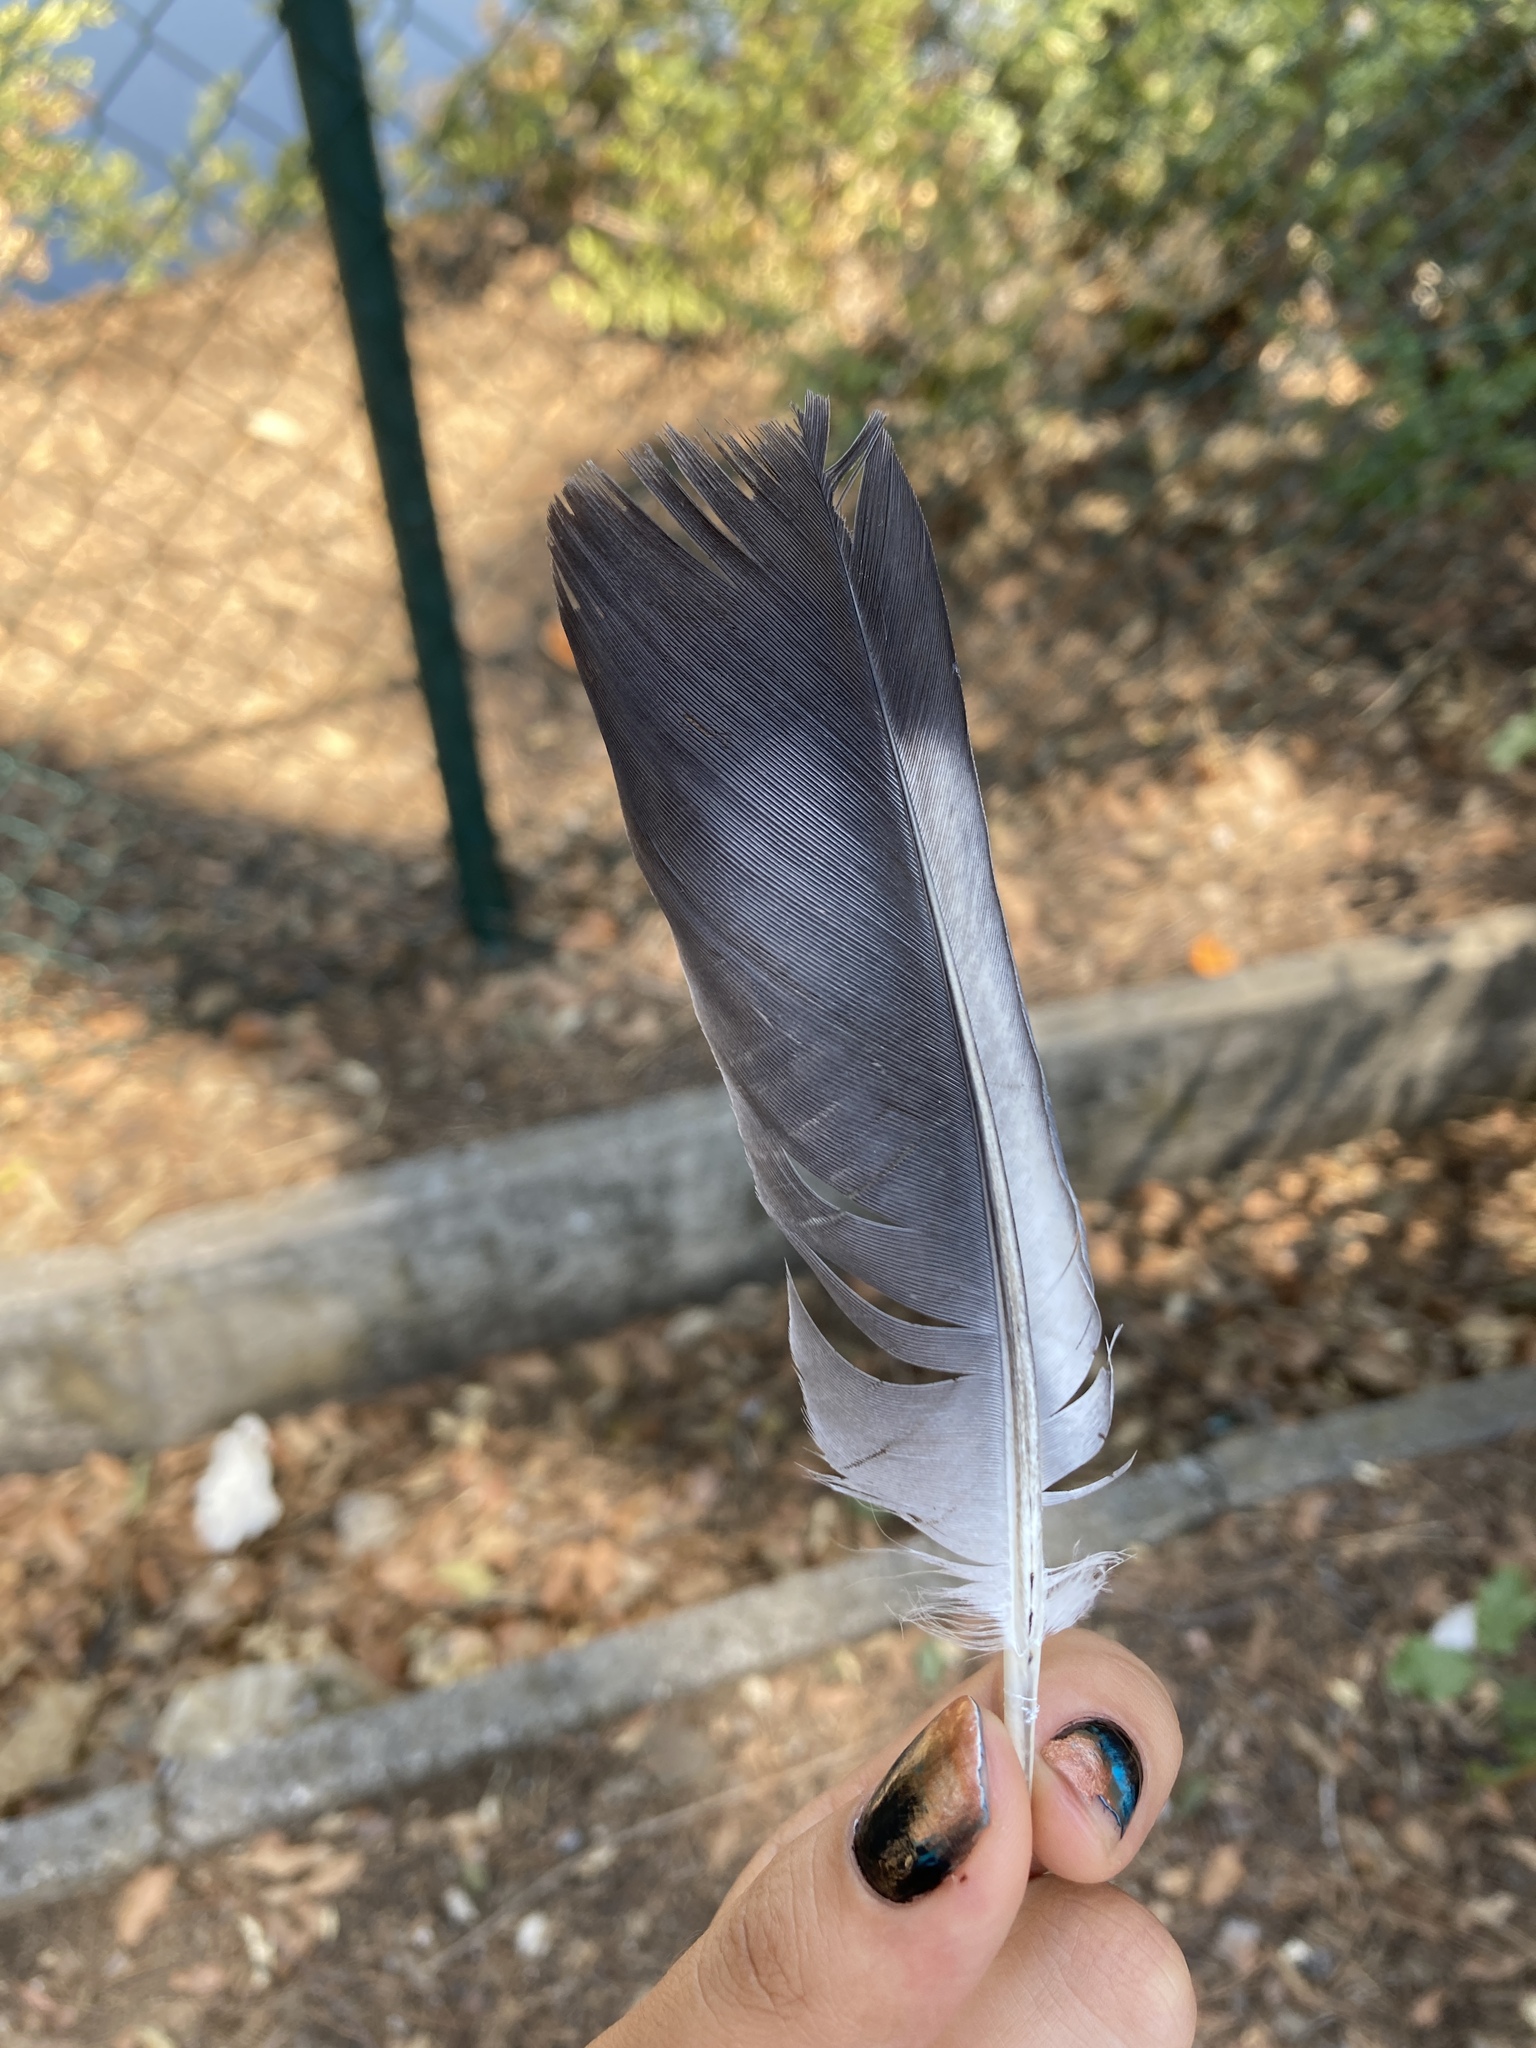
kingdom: Animalia
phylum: Chordata
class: Aves
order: Columbiformes
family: Columbidae
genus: Columba
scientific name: Columba livia
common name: Rock pigeon
